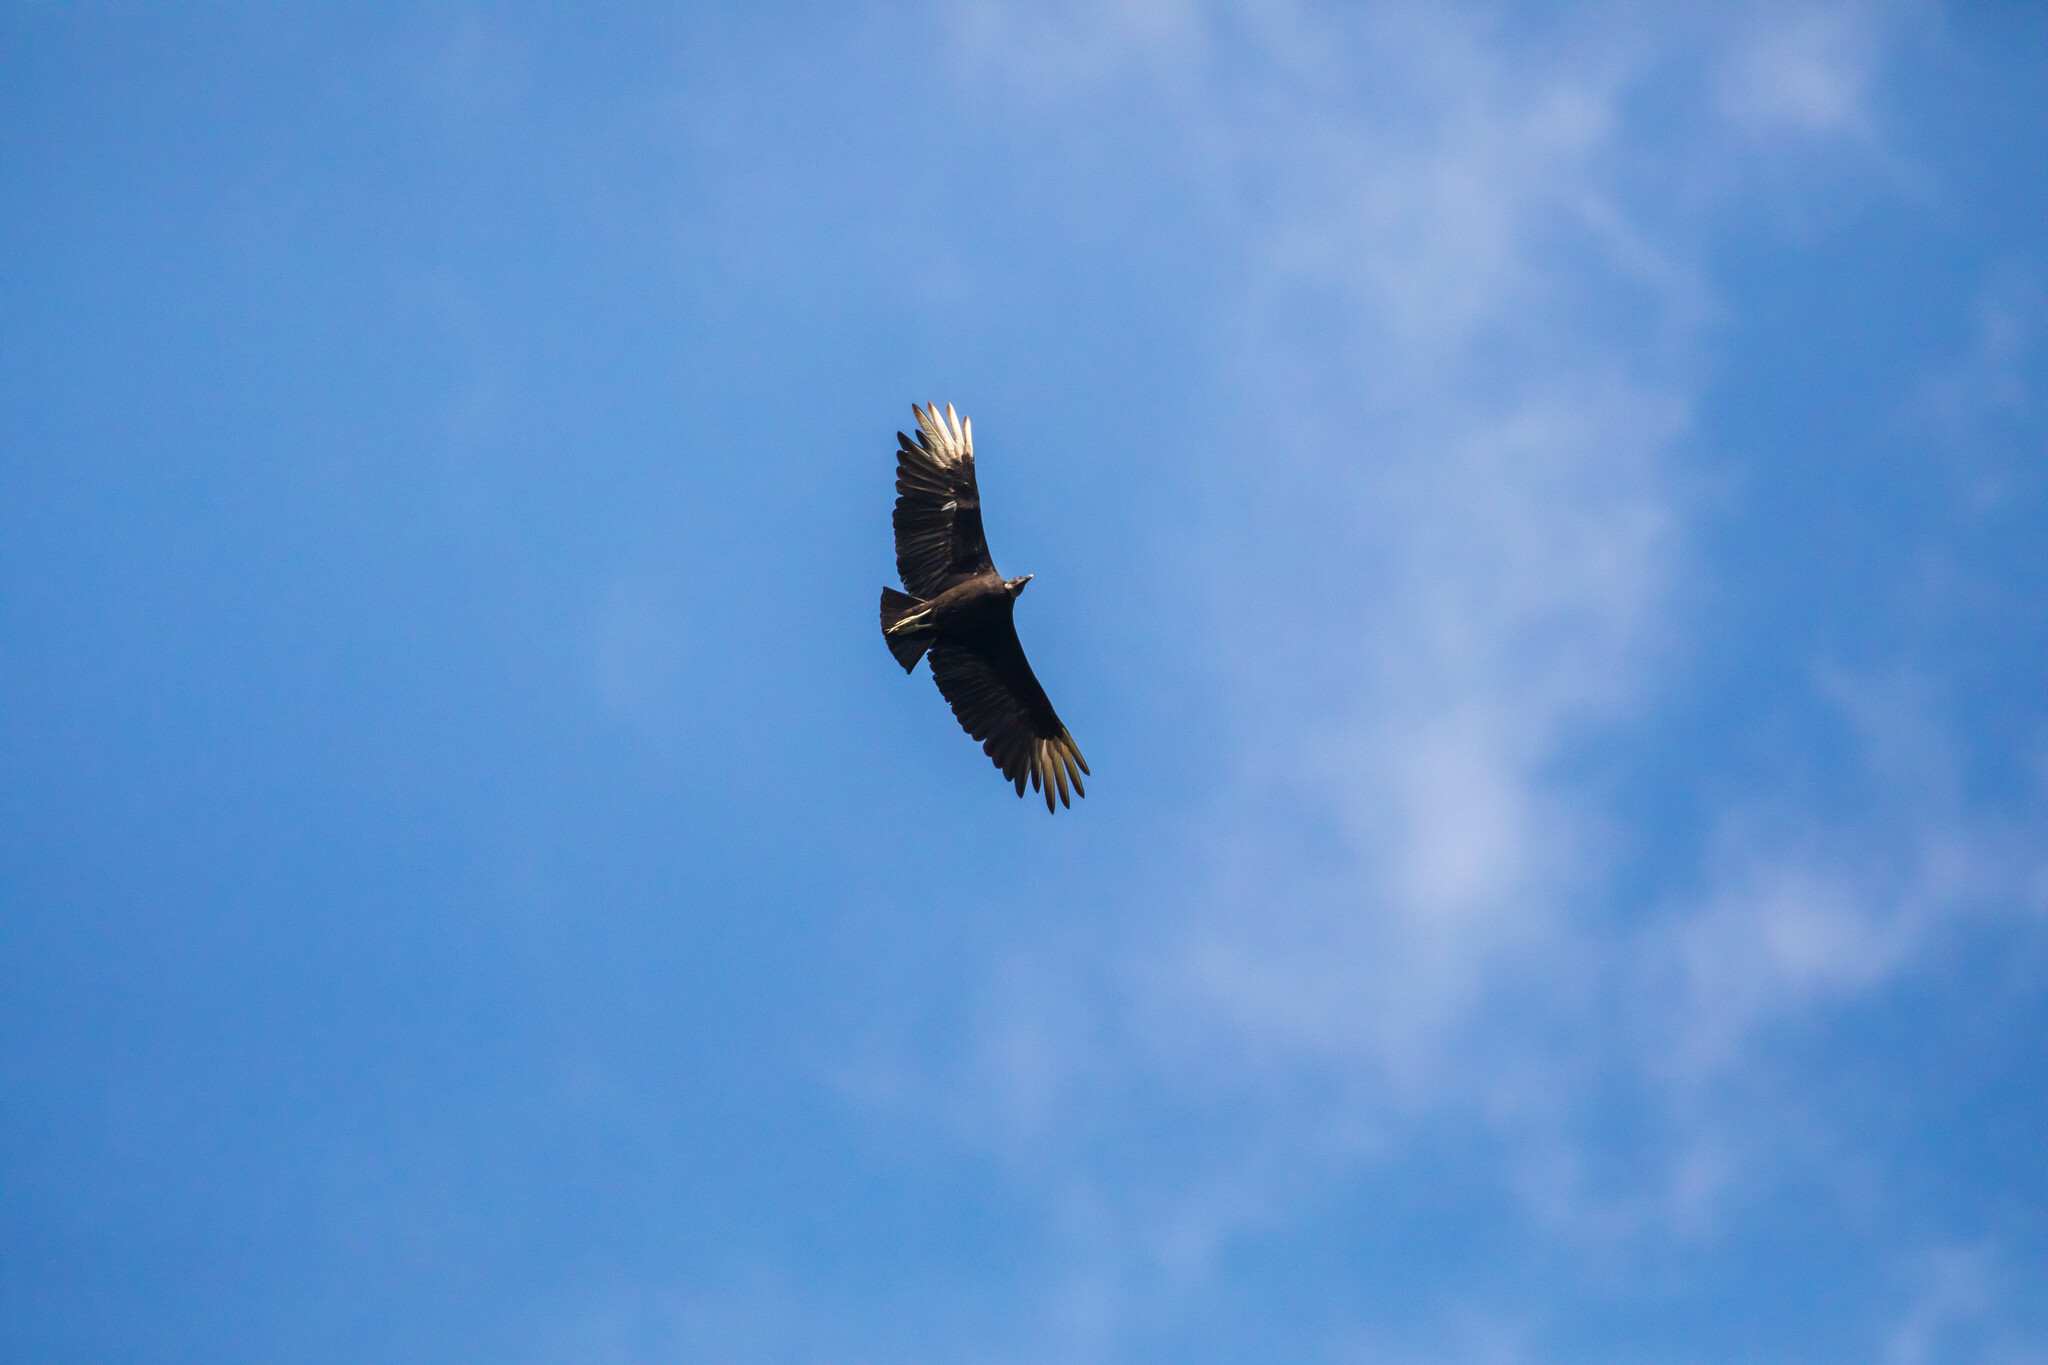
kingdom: Animalia
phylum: Chordata
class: Aves
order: Accipitriformes
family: Cathartidae
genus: Coragyps
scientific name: Coragyps atratus
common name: Black vulture
